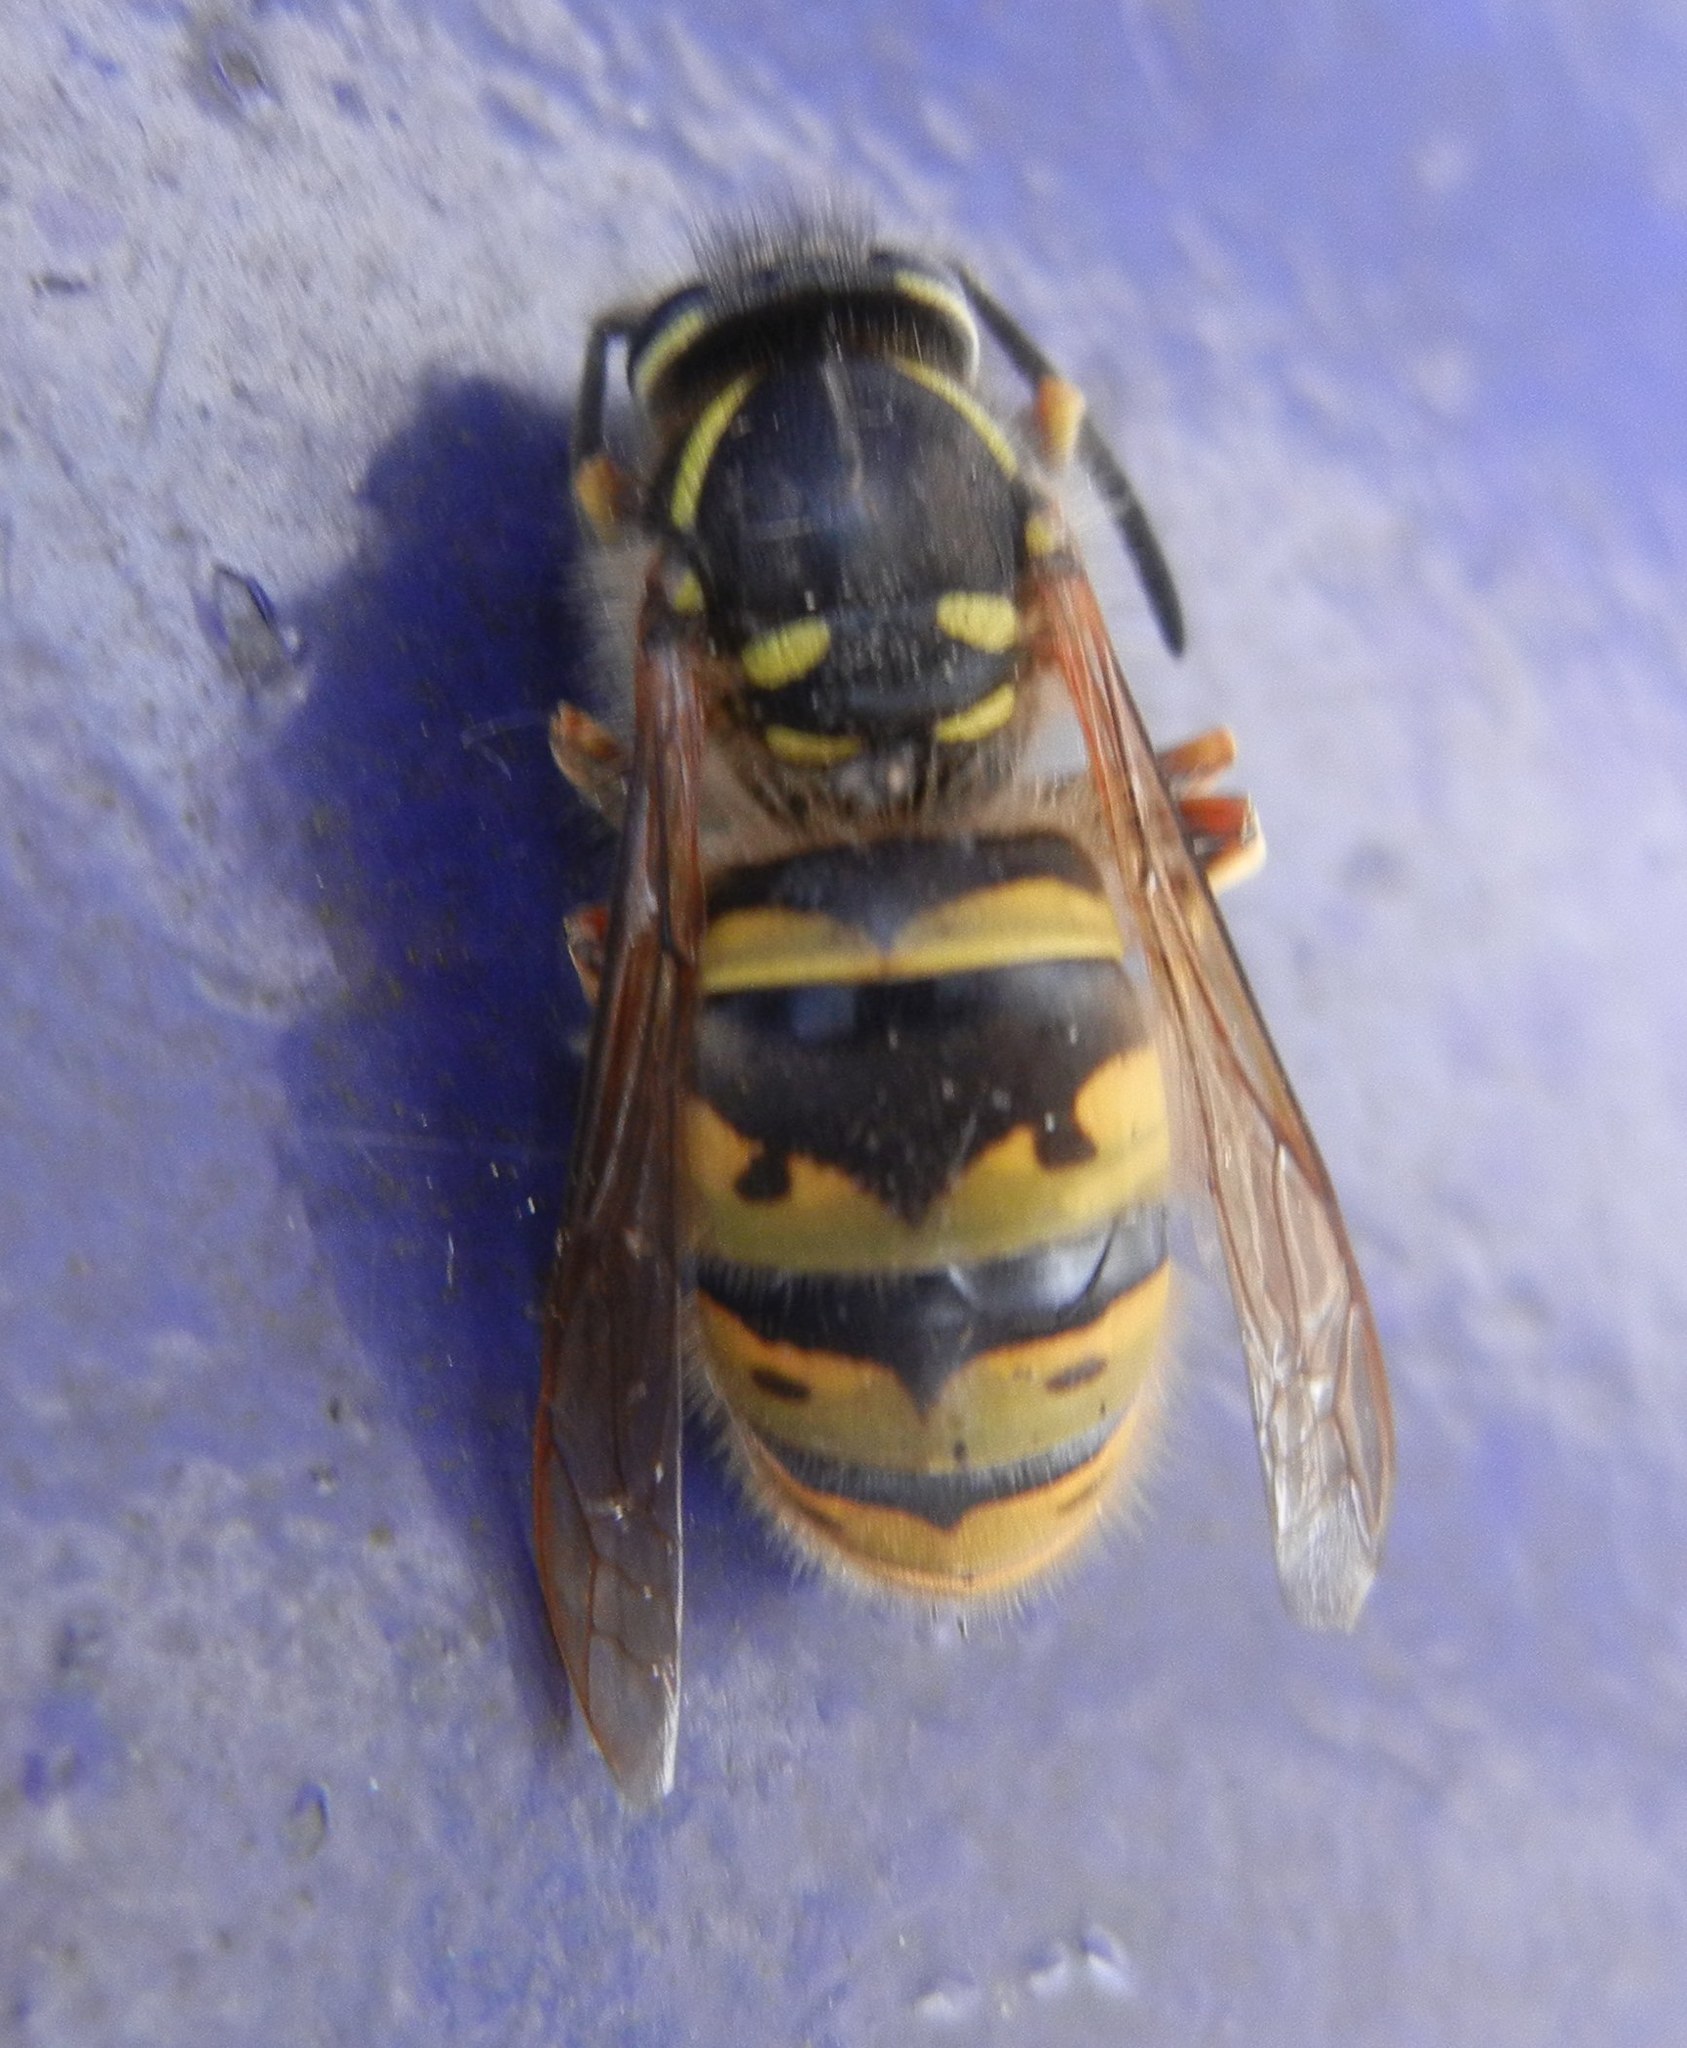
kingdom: Animalia
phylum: Arthropoda
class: Insecta
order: Hymenoptera
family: Vespidae
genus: Vespula
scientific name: Vespula vulgaris
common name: Common wasp
